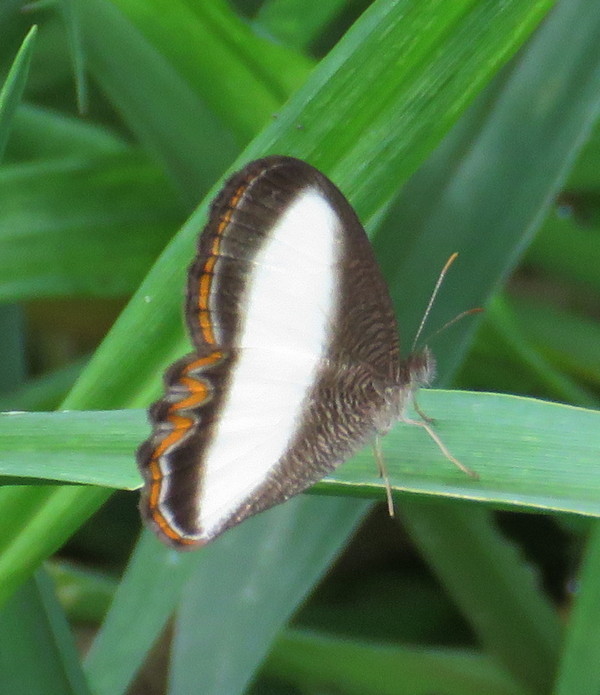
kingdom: Animalia
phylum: Arthropoda
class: Insecta
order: Lepidoptera
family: Nymphalidae
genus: Oressinoma
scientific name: Oressinoma typhla
